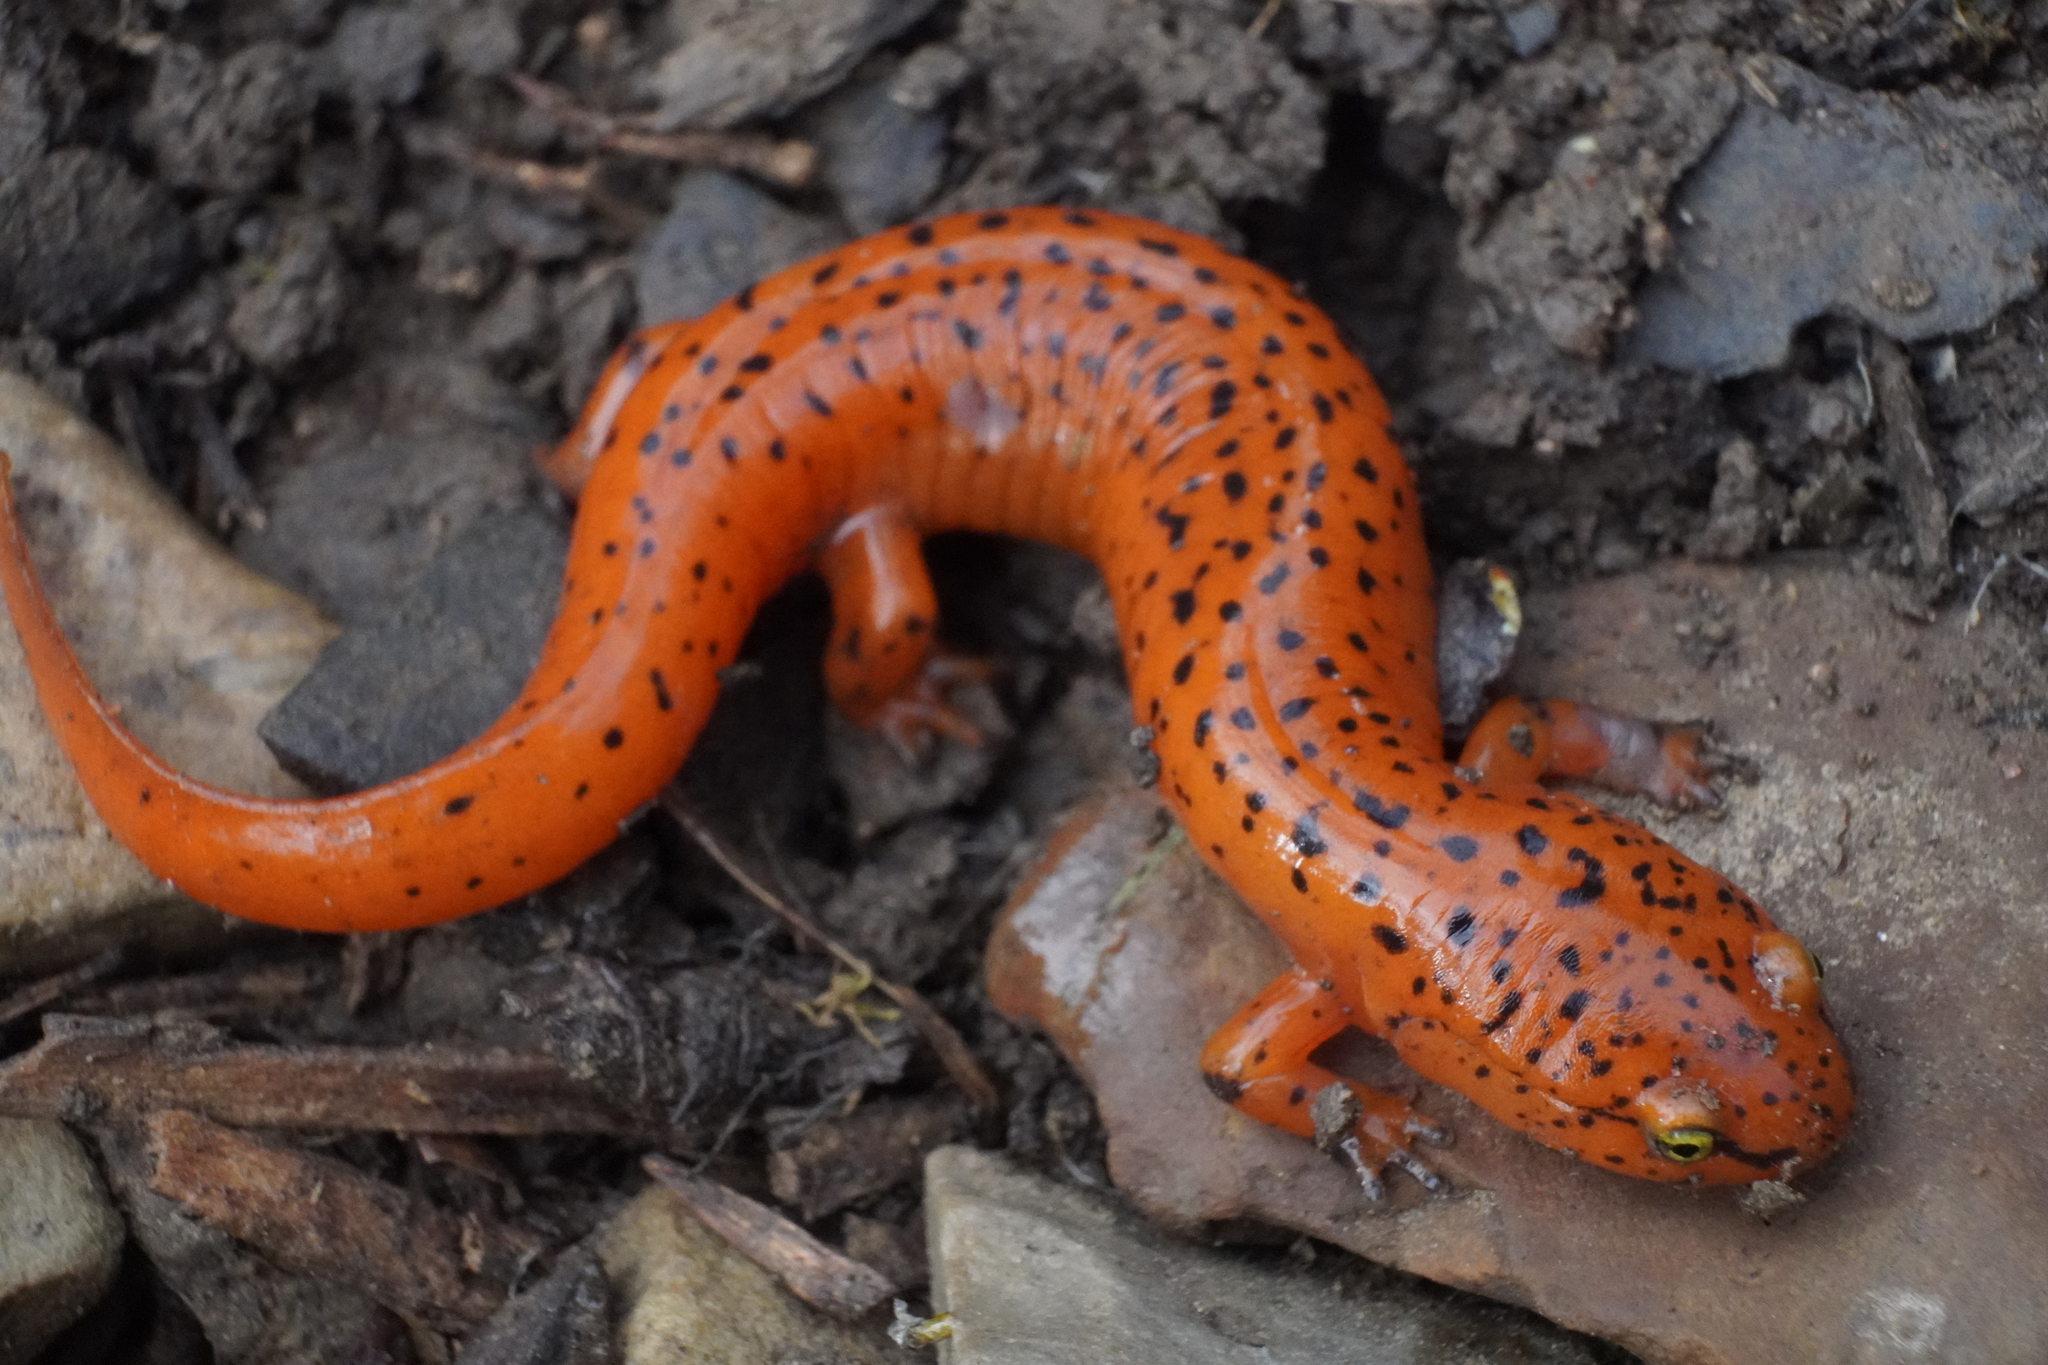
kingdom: Animalia
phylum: Chordata
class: Amphibia
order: Caudata
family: Plethodontidae
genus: Pseudotriton
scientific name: Pseudotriton ruber
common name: Red salamander
